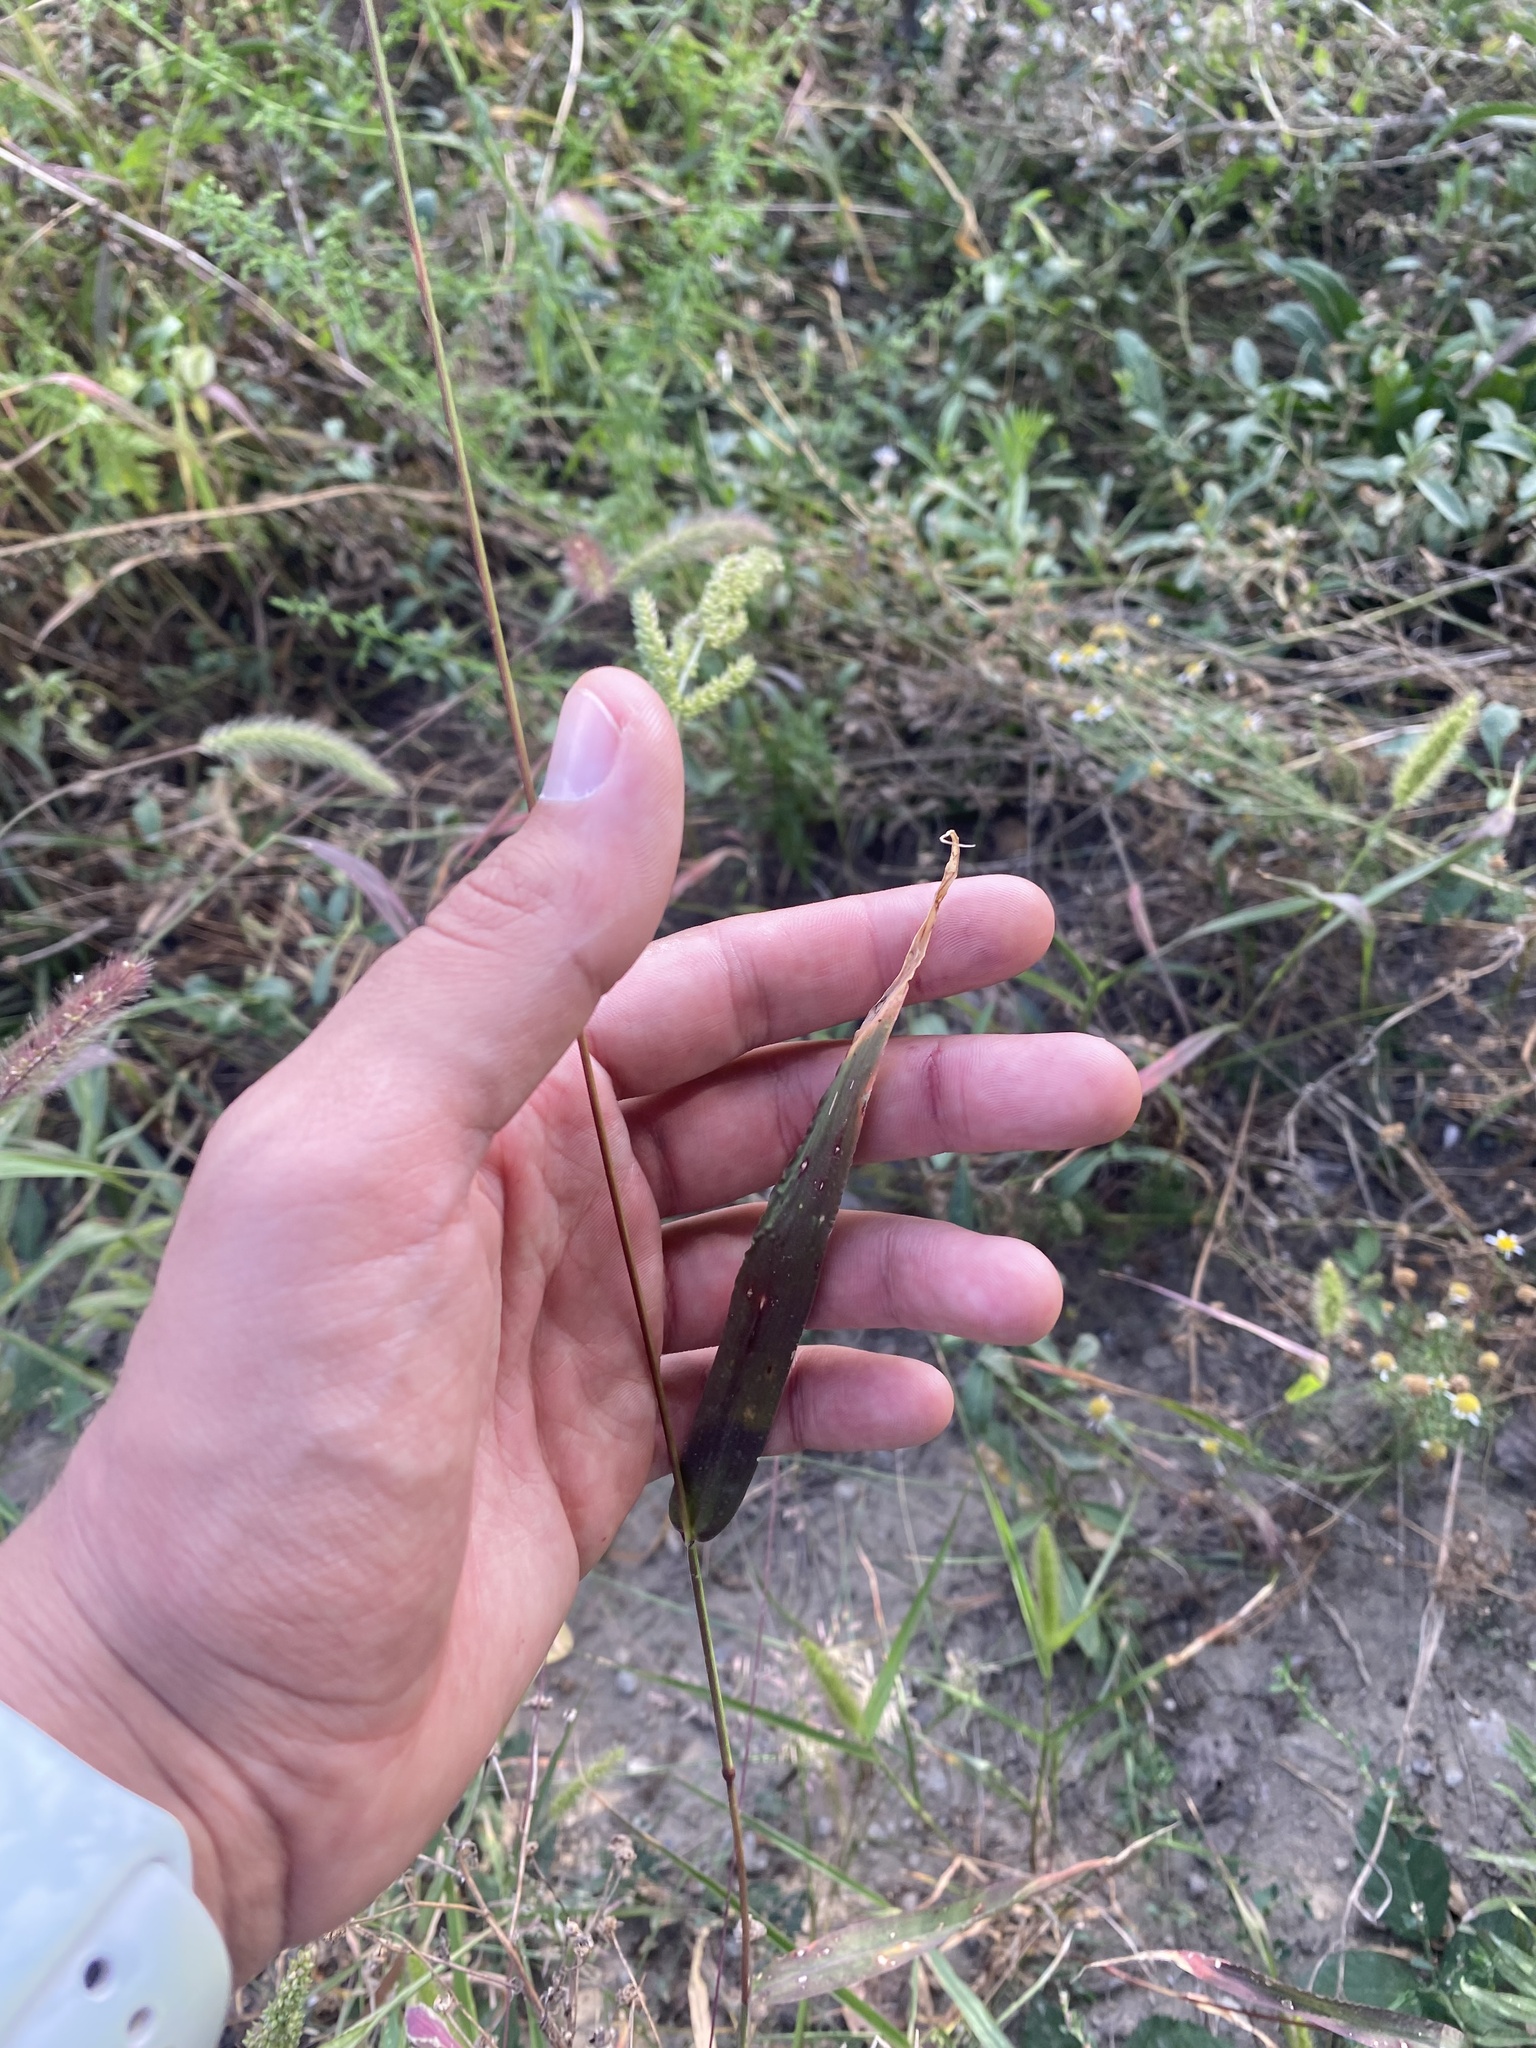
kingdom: Plantae
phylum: Tracheophyta
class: Liliopsida
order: Poales
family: Poaceae
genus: Setaria
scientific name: Setaria viridis
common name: Green bristlegrass
